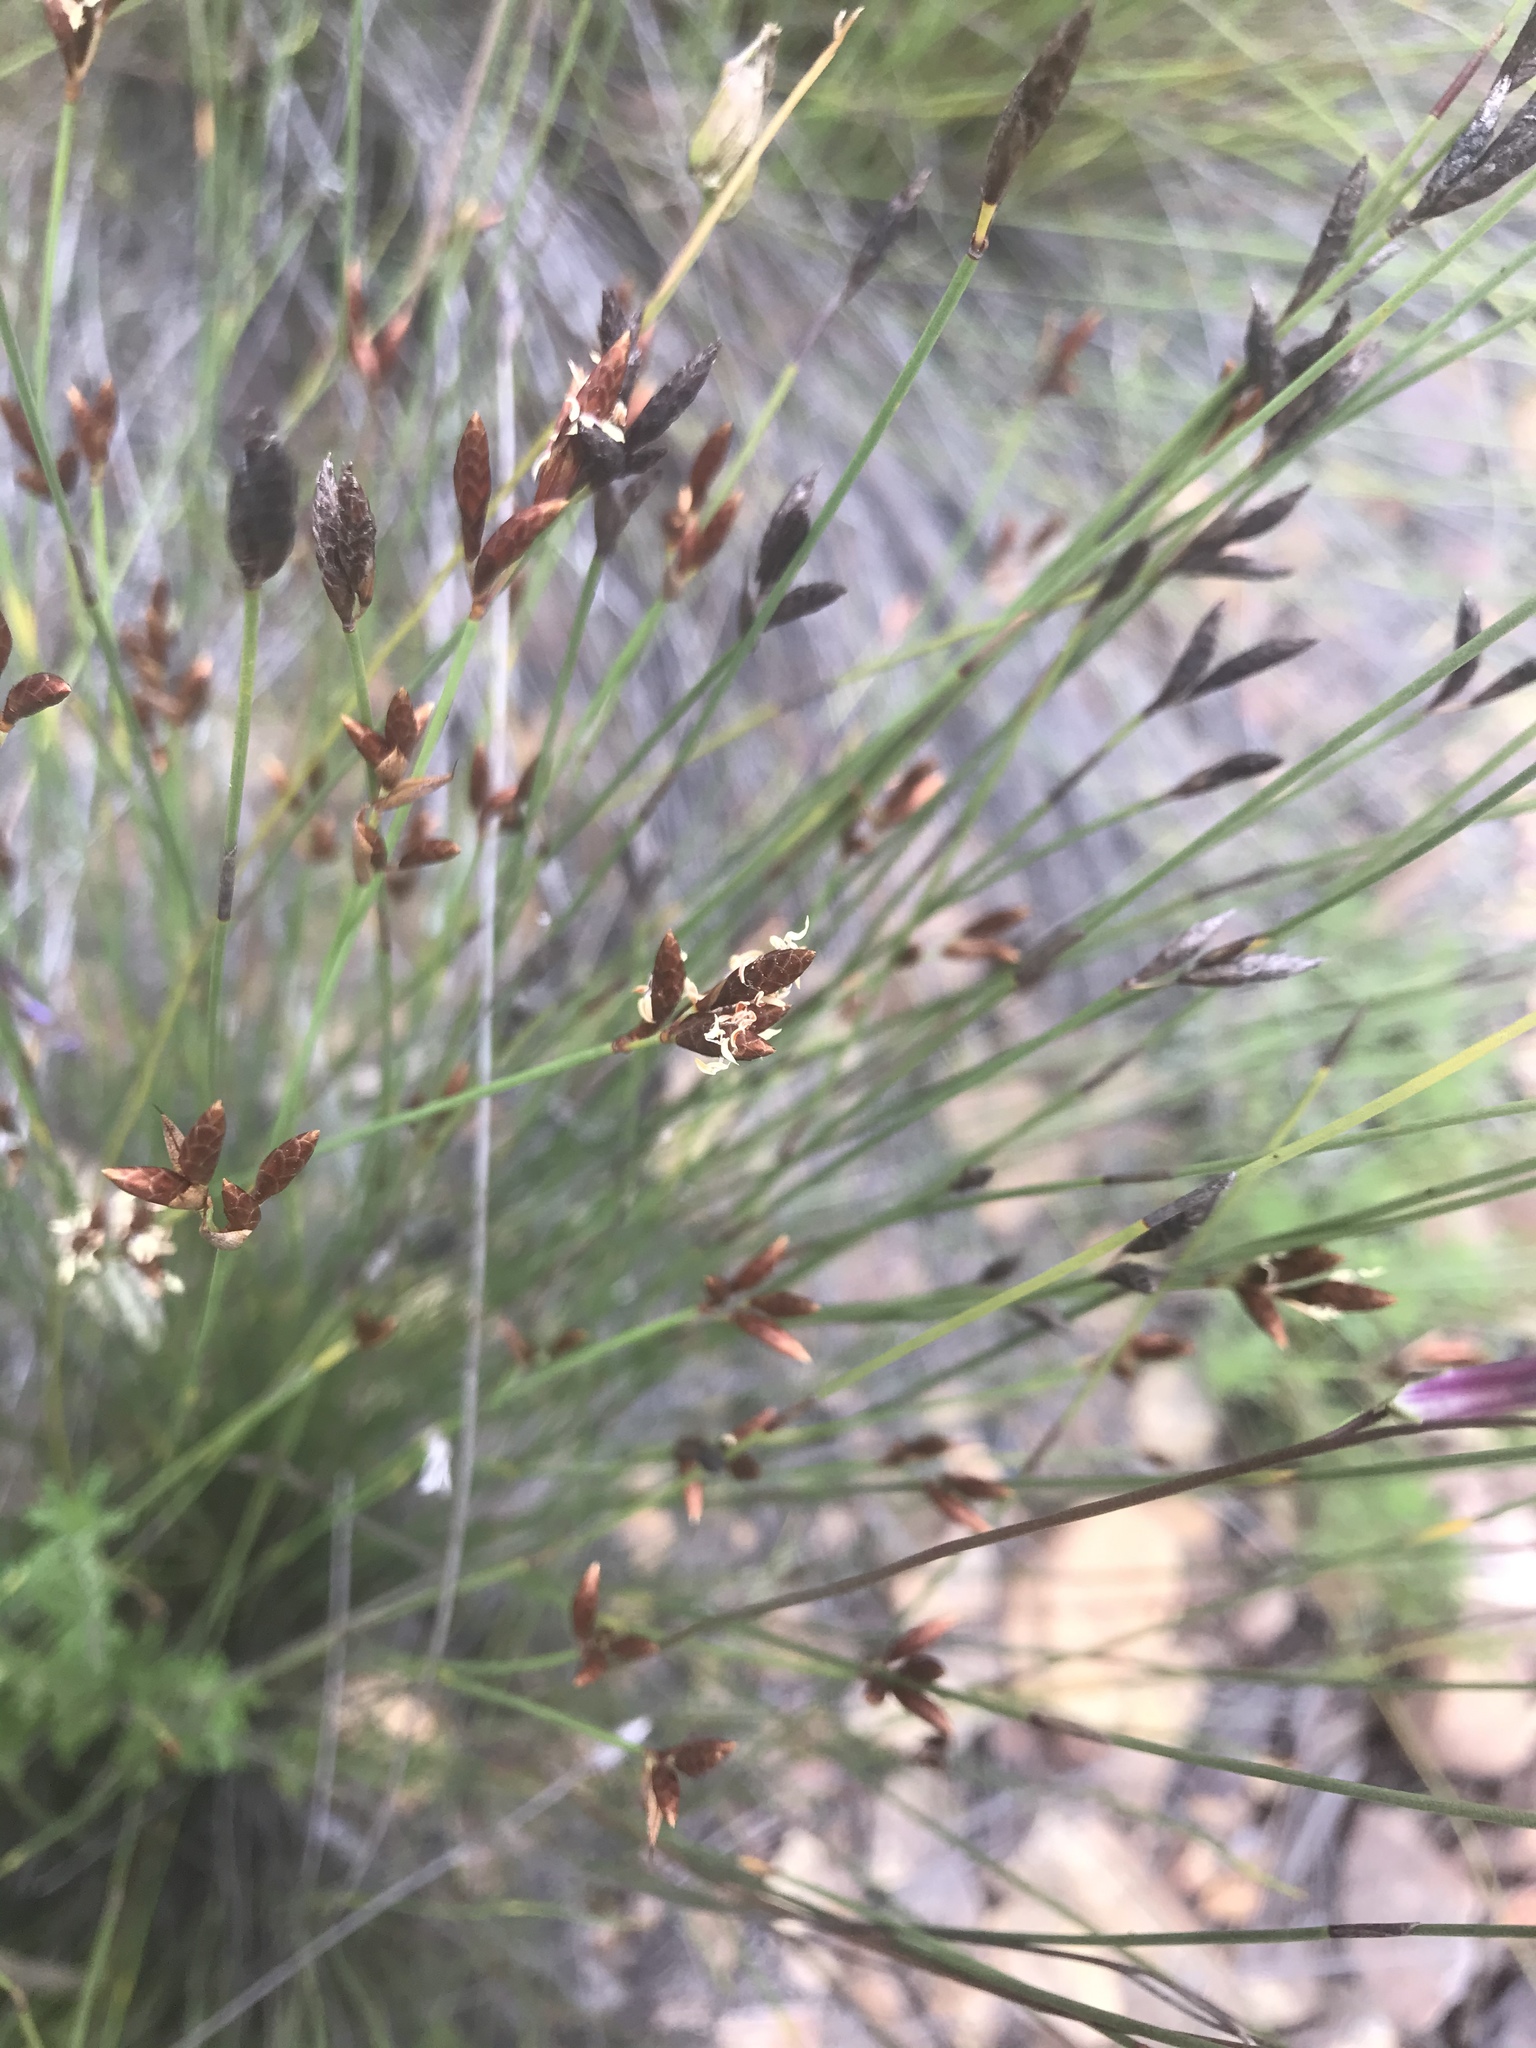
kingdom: Plantae
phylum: Tracheophyta
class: Liliopsida
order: Poales
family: Restionaceae
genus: Hypodiscus
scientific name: Hypodiscus striatus
